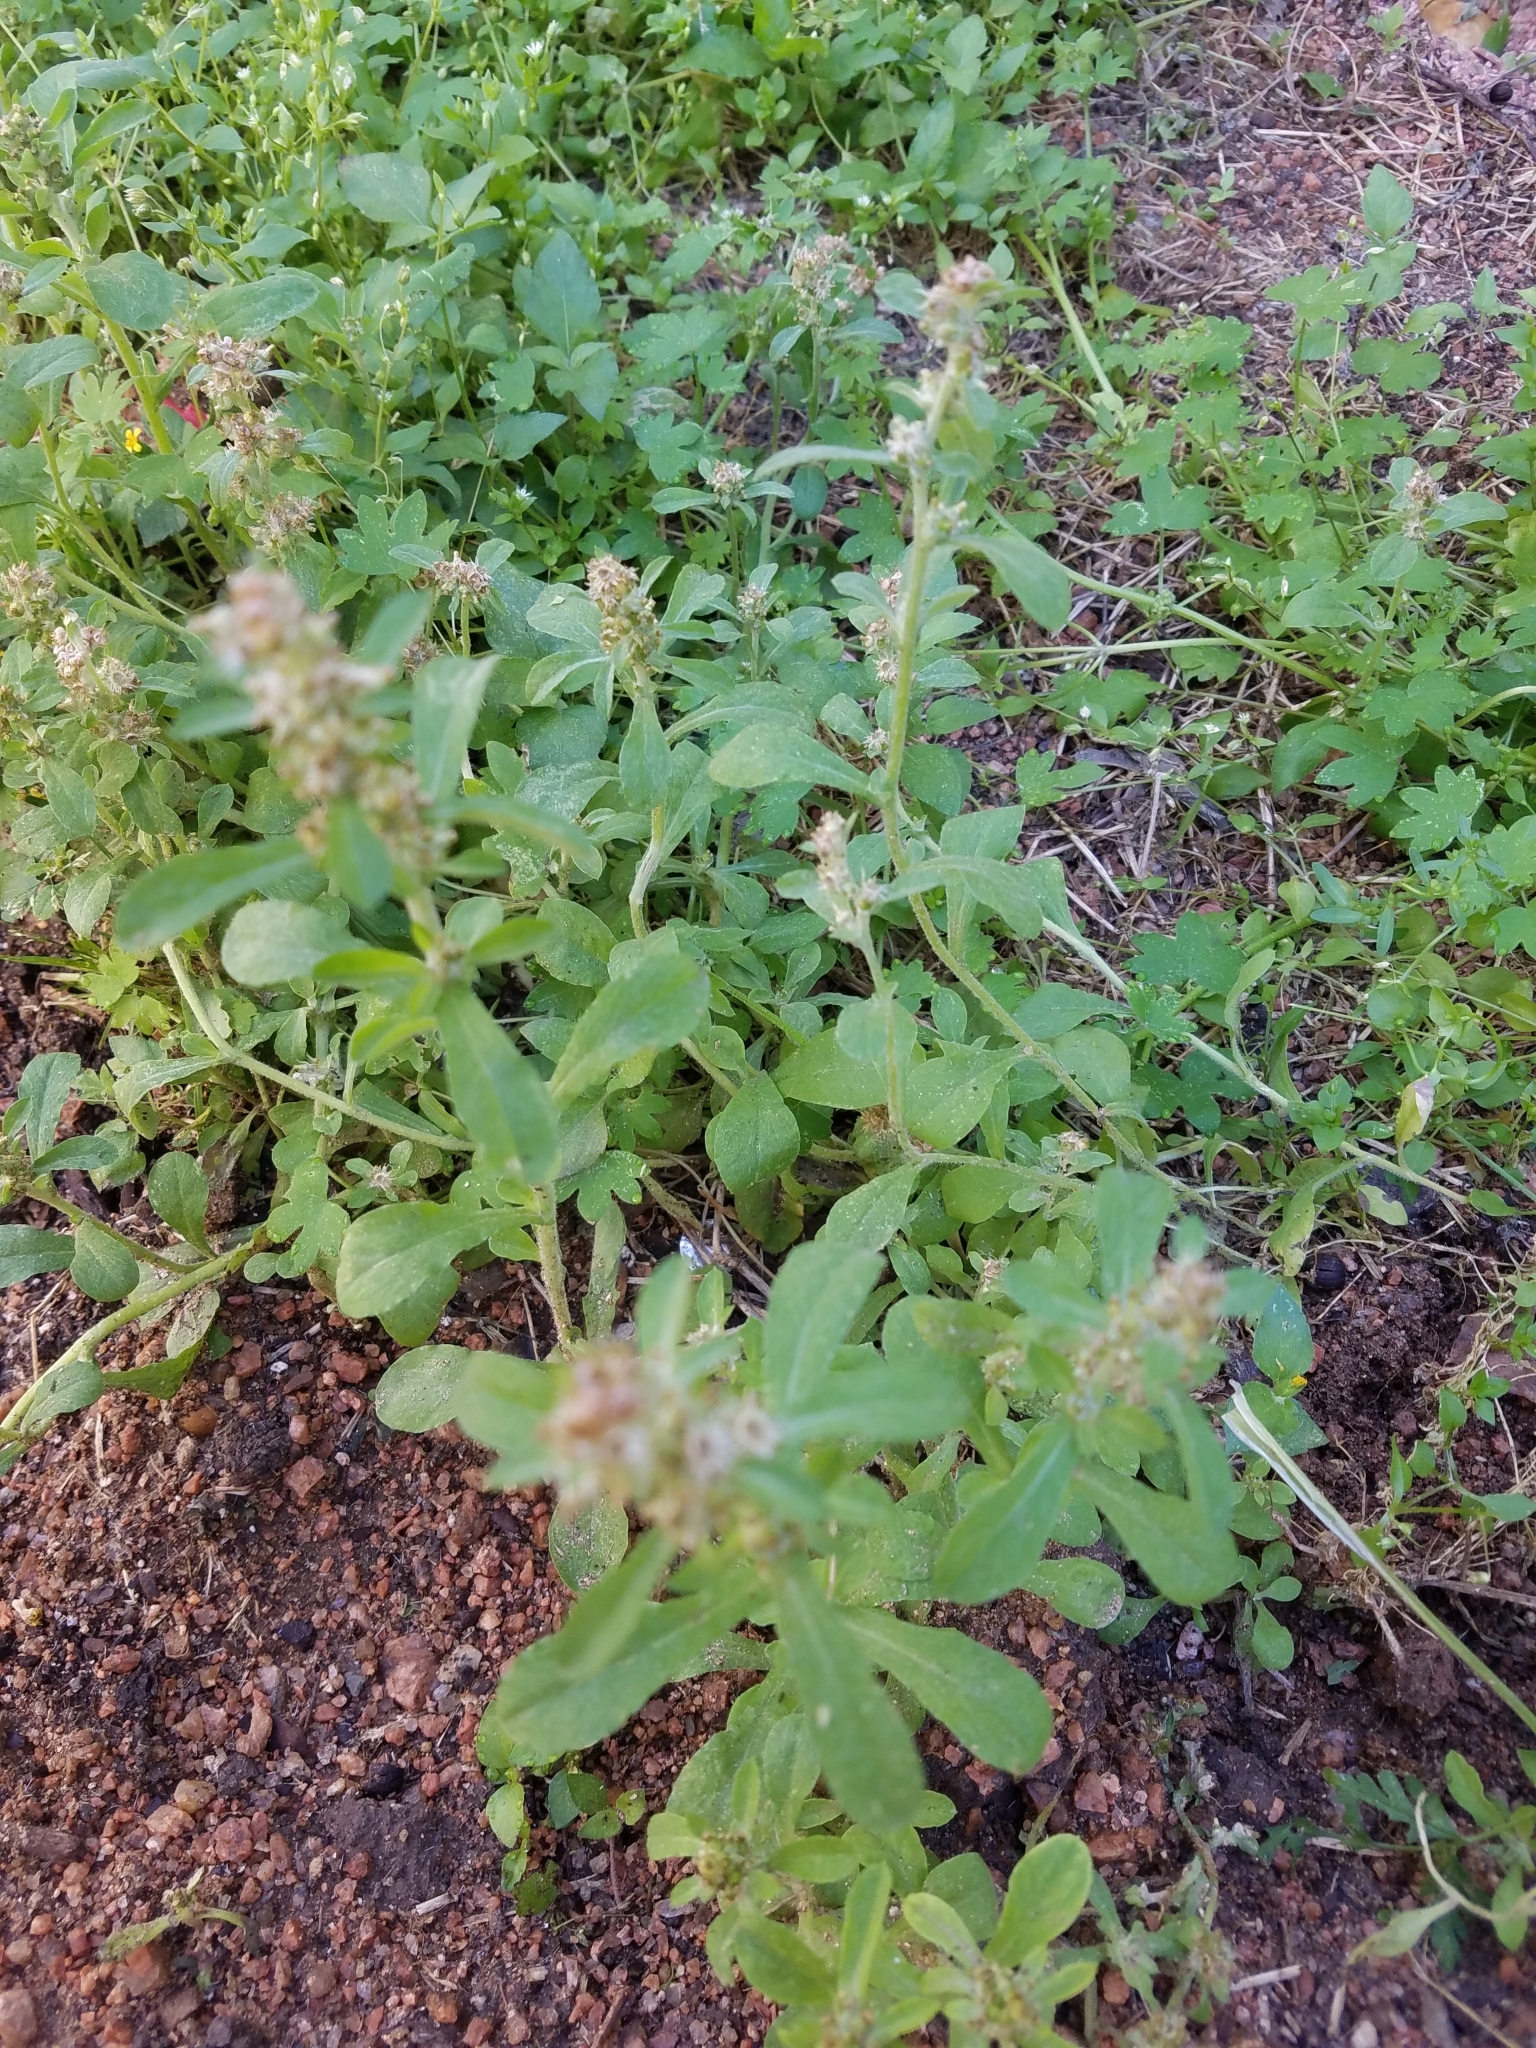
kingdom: Plantae
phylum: Tracheophyta
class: Magnoliopsida
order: Asterales
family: Asteraceae
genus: Gamochaeta
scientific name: Gamochaeta pensylvanica
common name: Pennsylvania everlasting
